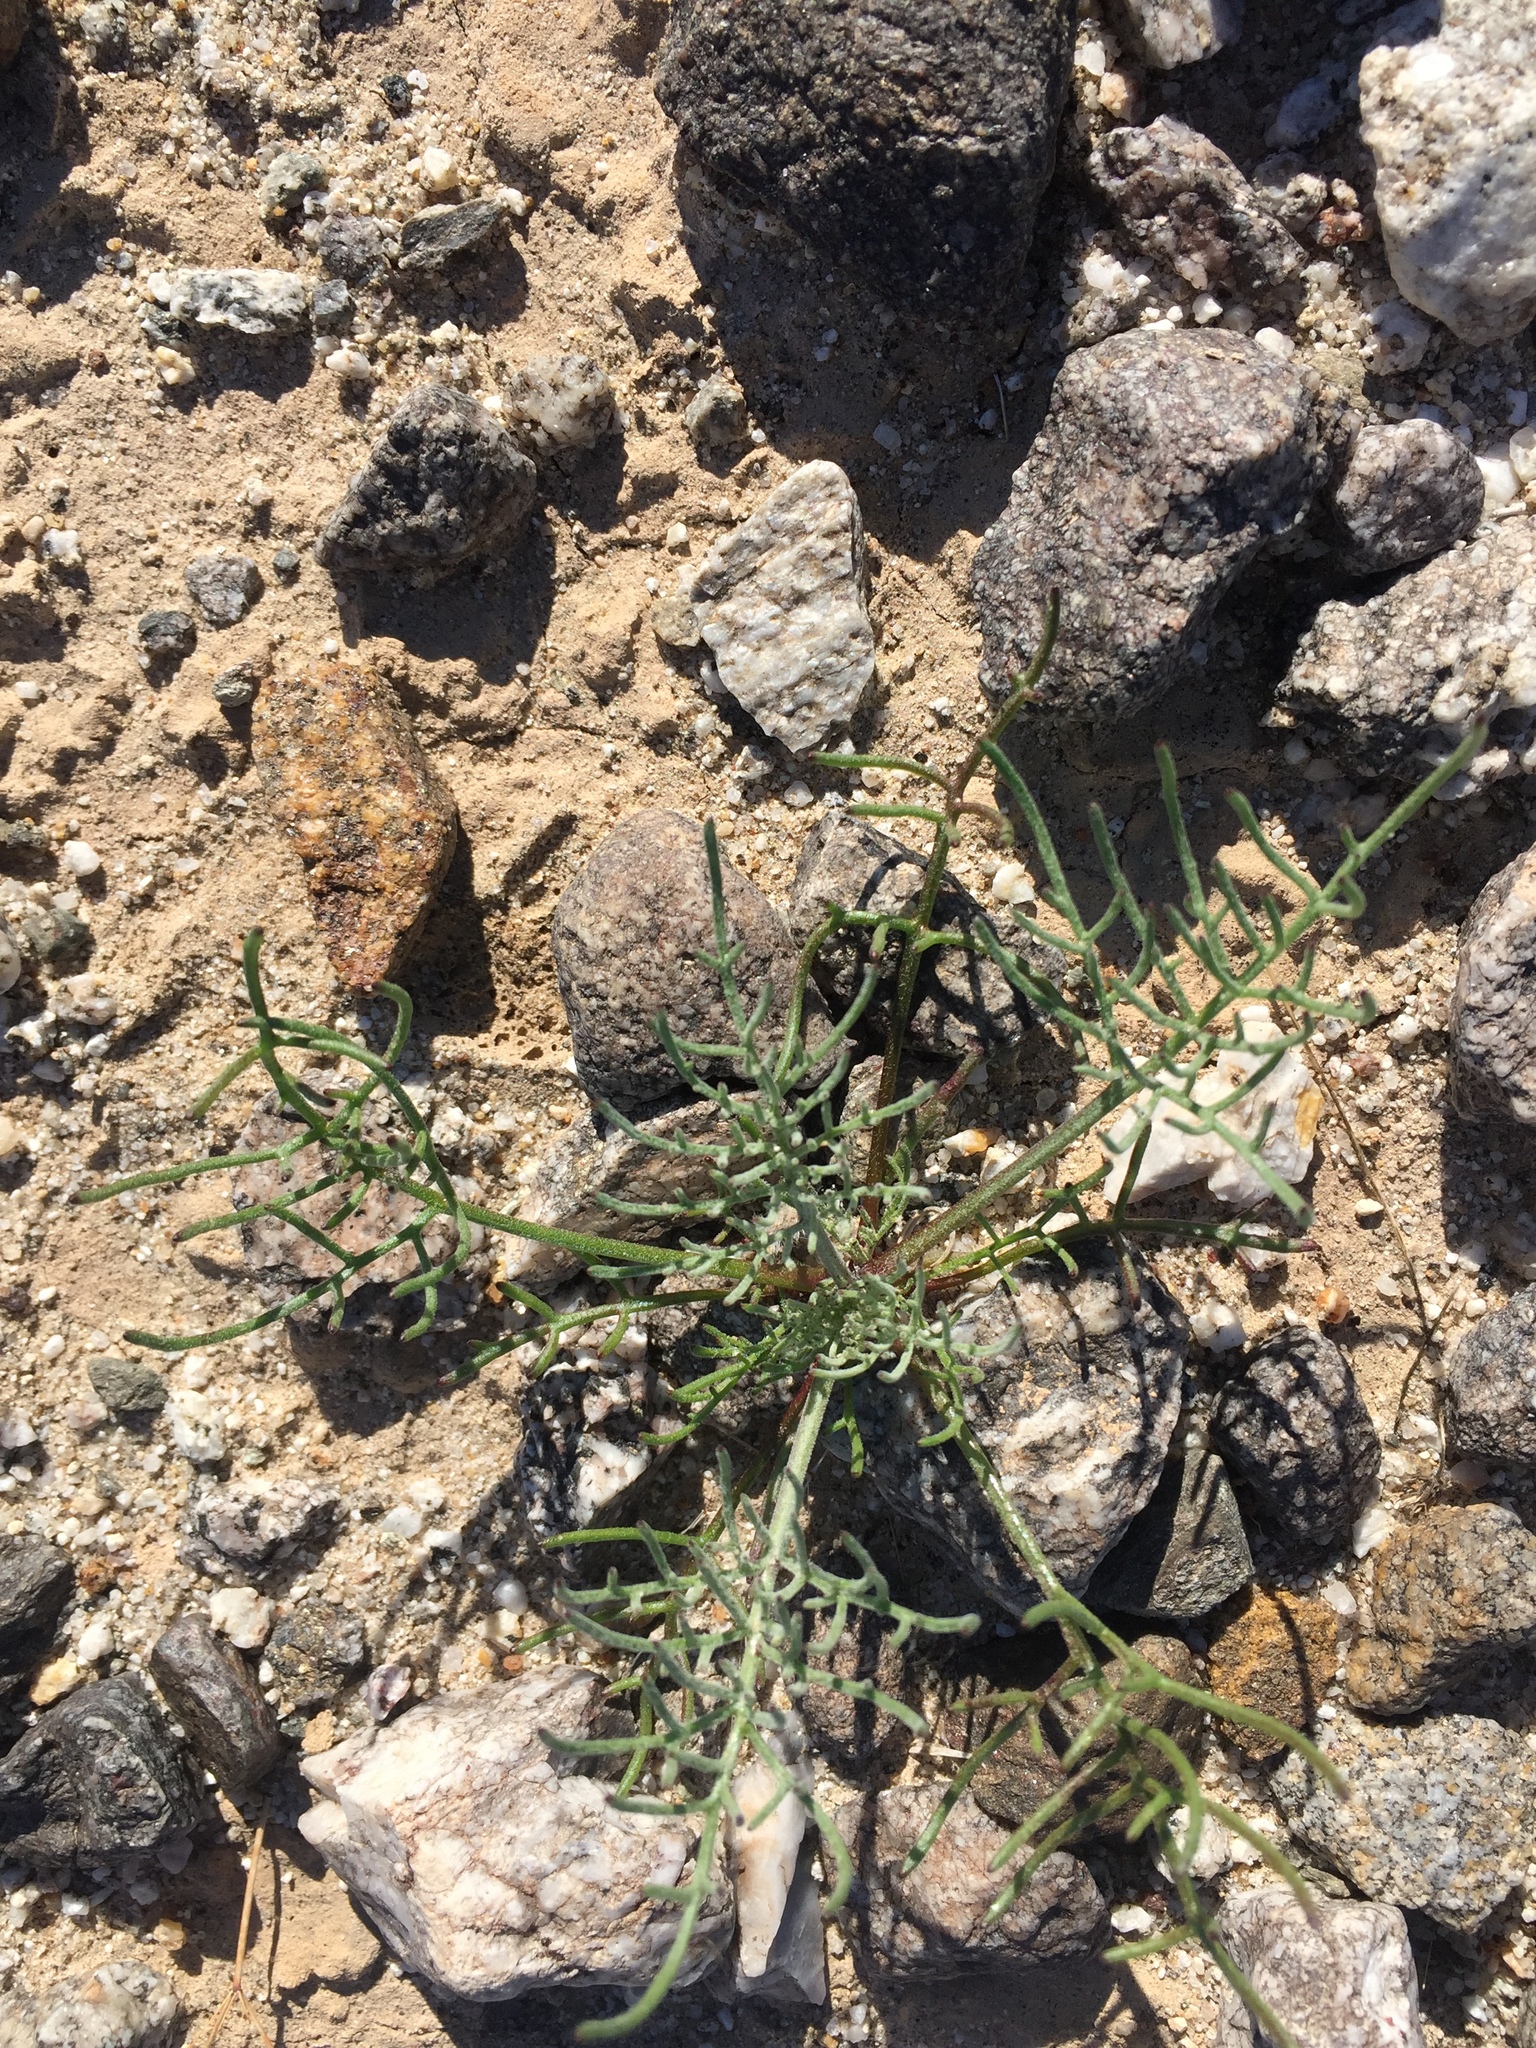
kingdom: Plantae
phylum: Tracheophyta
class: Magnoliopsida
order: Asterales
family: Asteraceae
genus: Chaenactis
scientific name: Chaenactis carphoclinia
